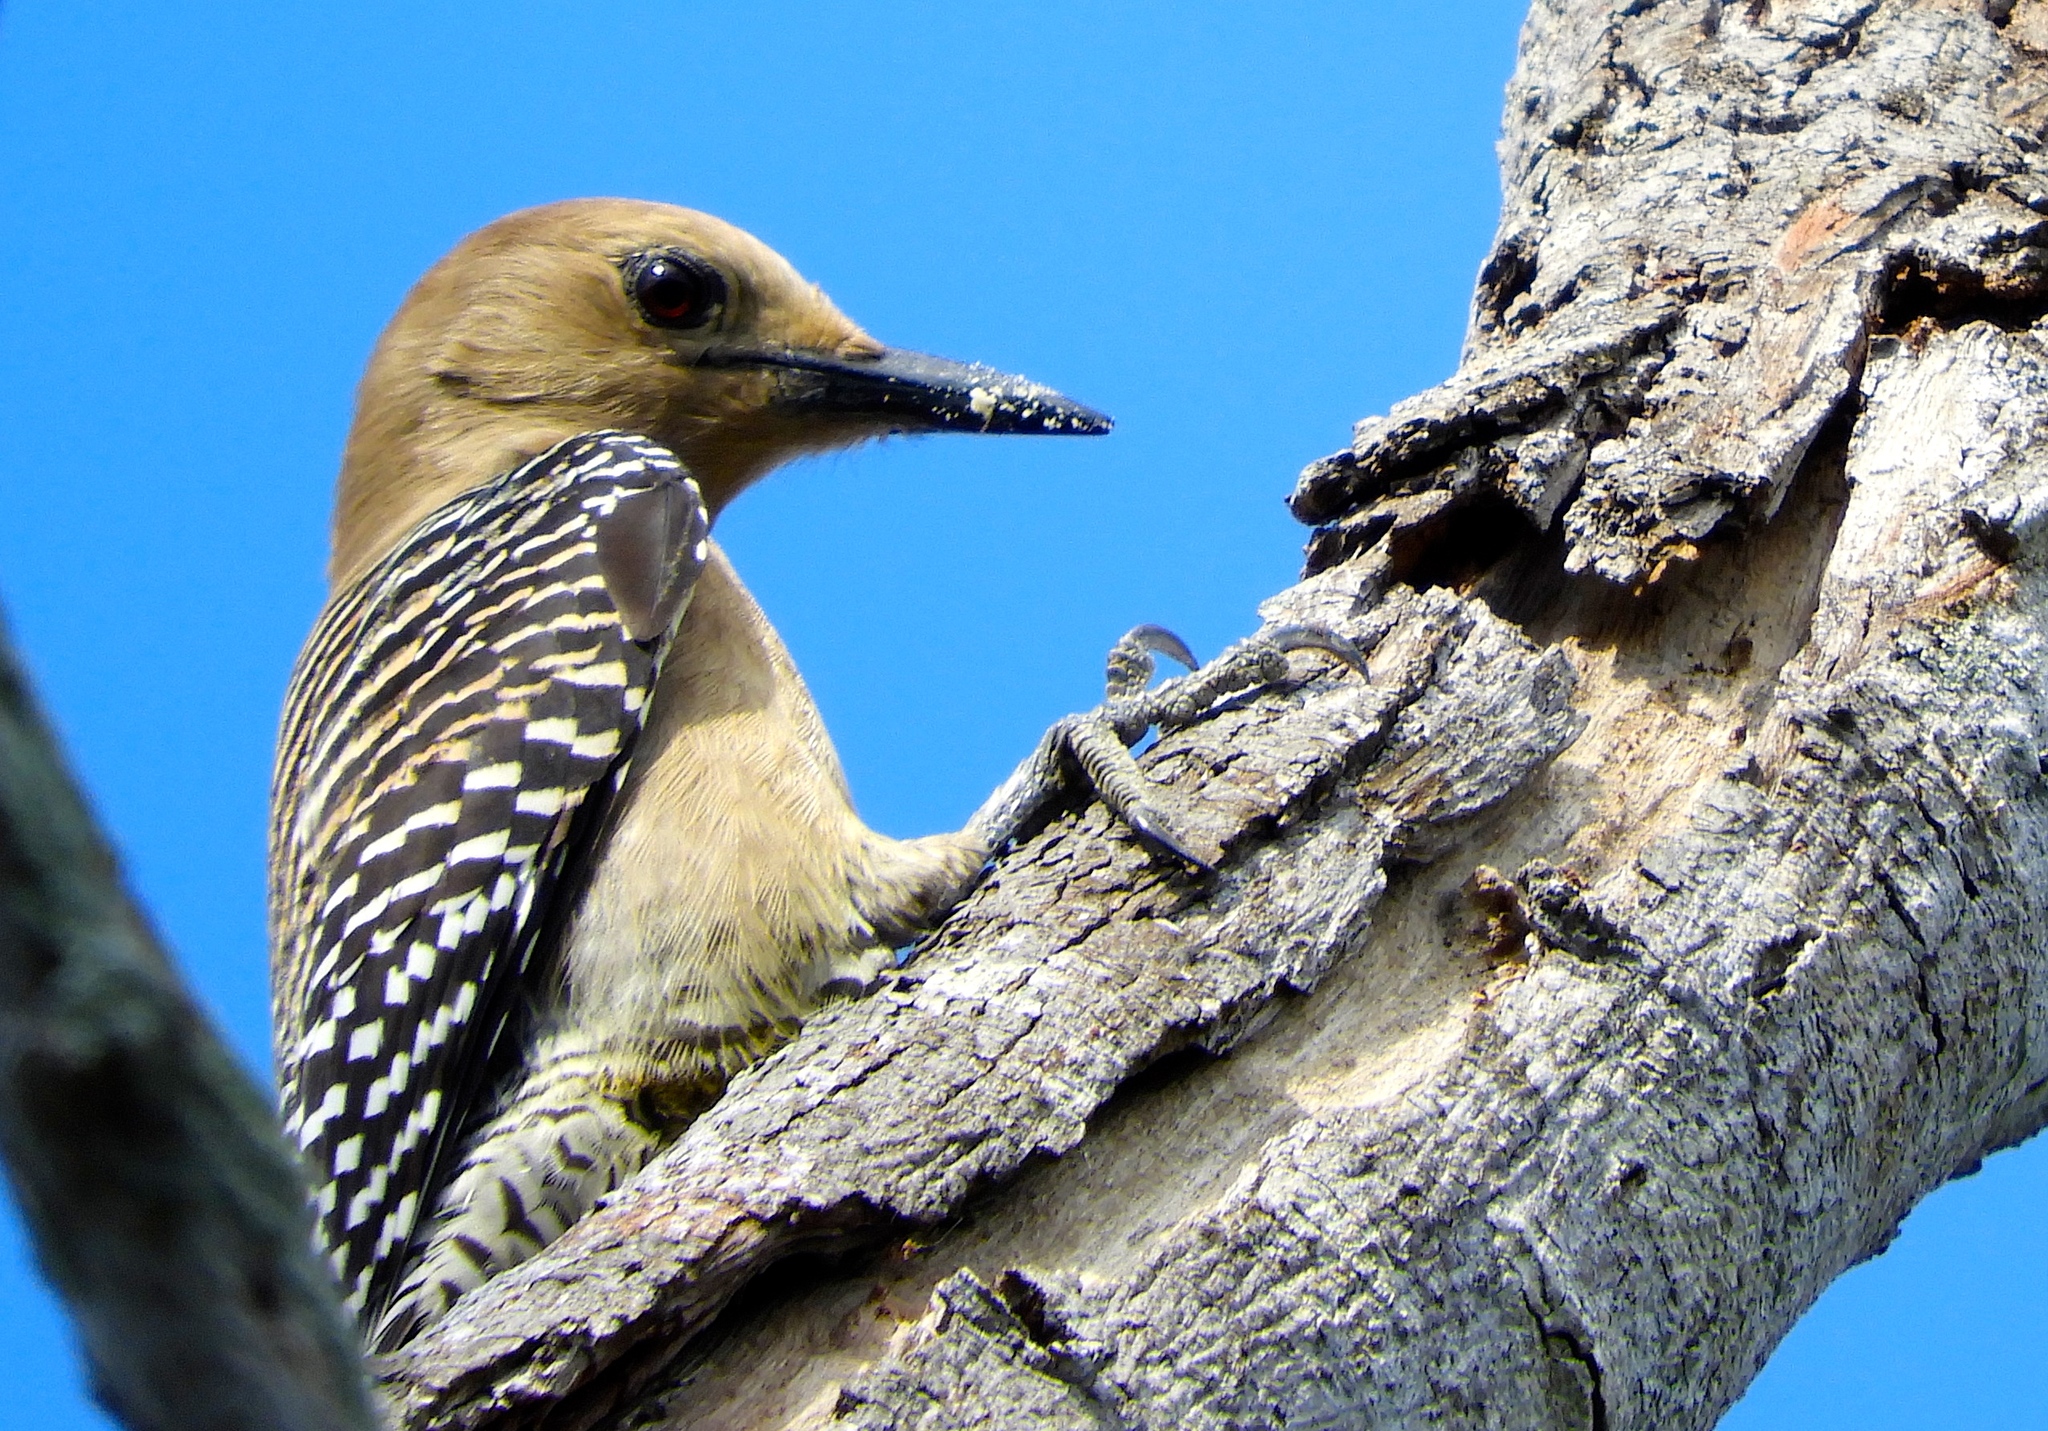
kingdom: Animalia
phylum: Chordata
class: Aves
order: Piciformes
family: Picidae
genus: Melanerpes
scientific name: Melanerpes uropygialis
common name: Gila woodpecker
